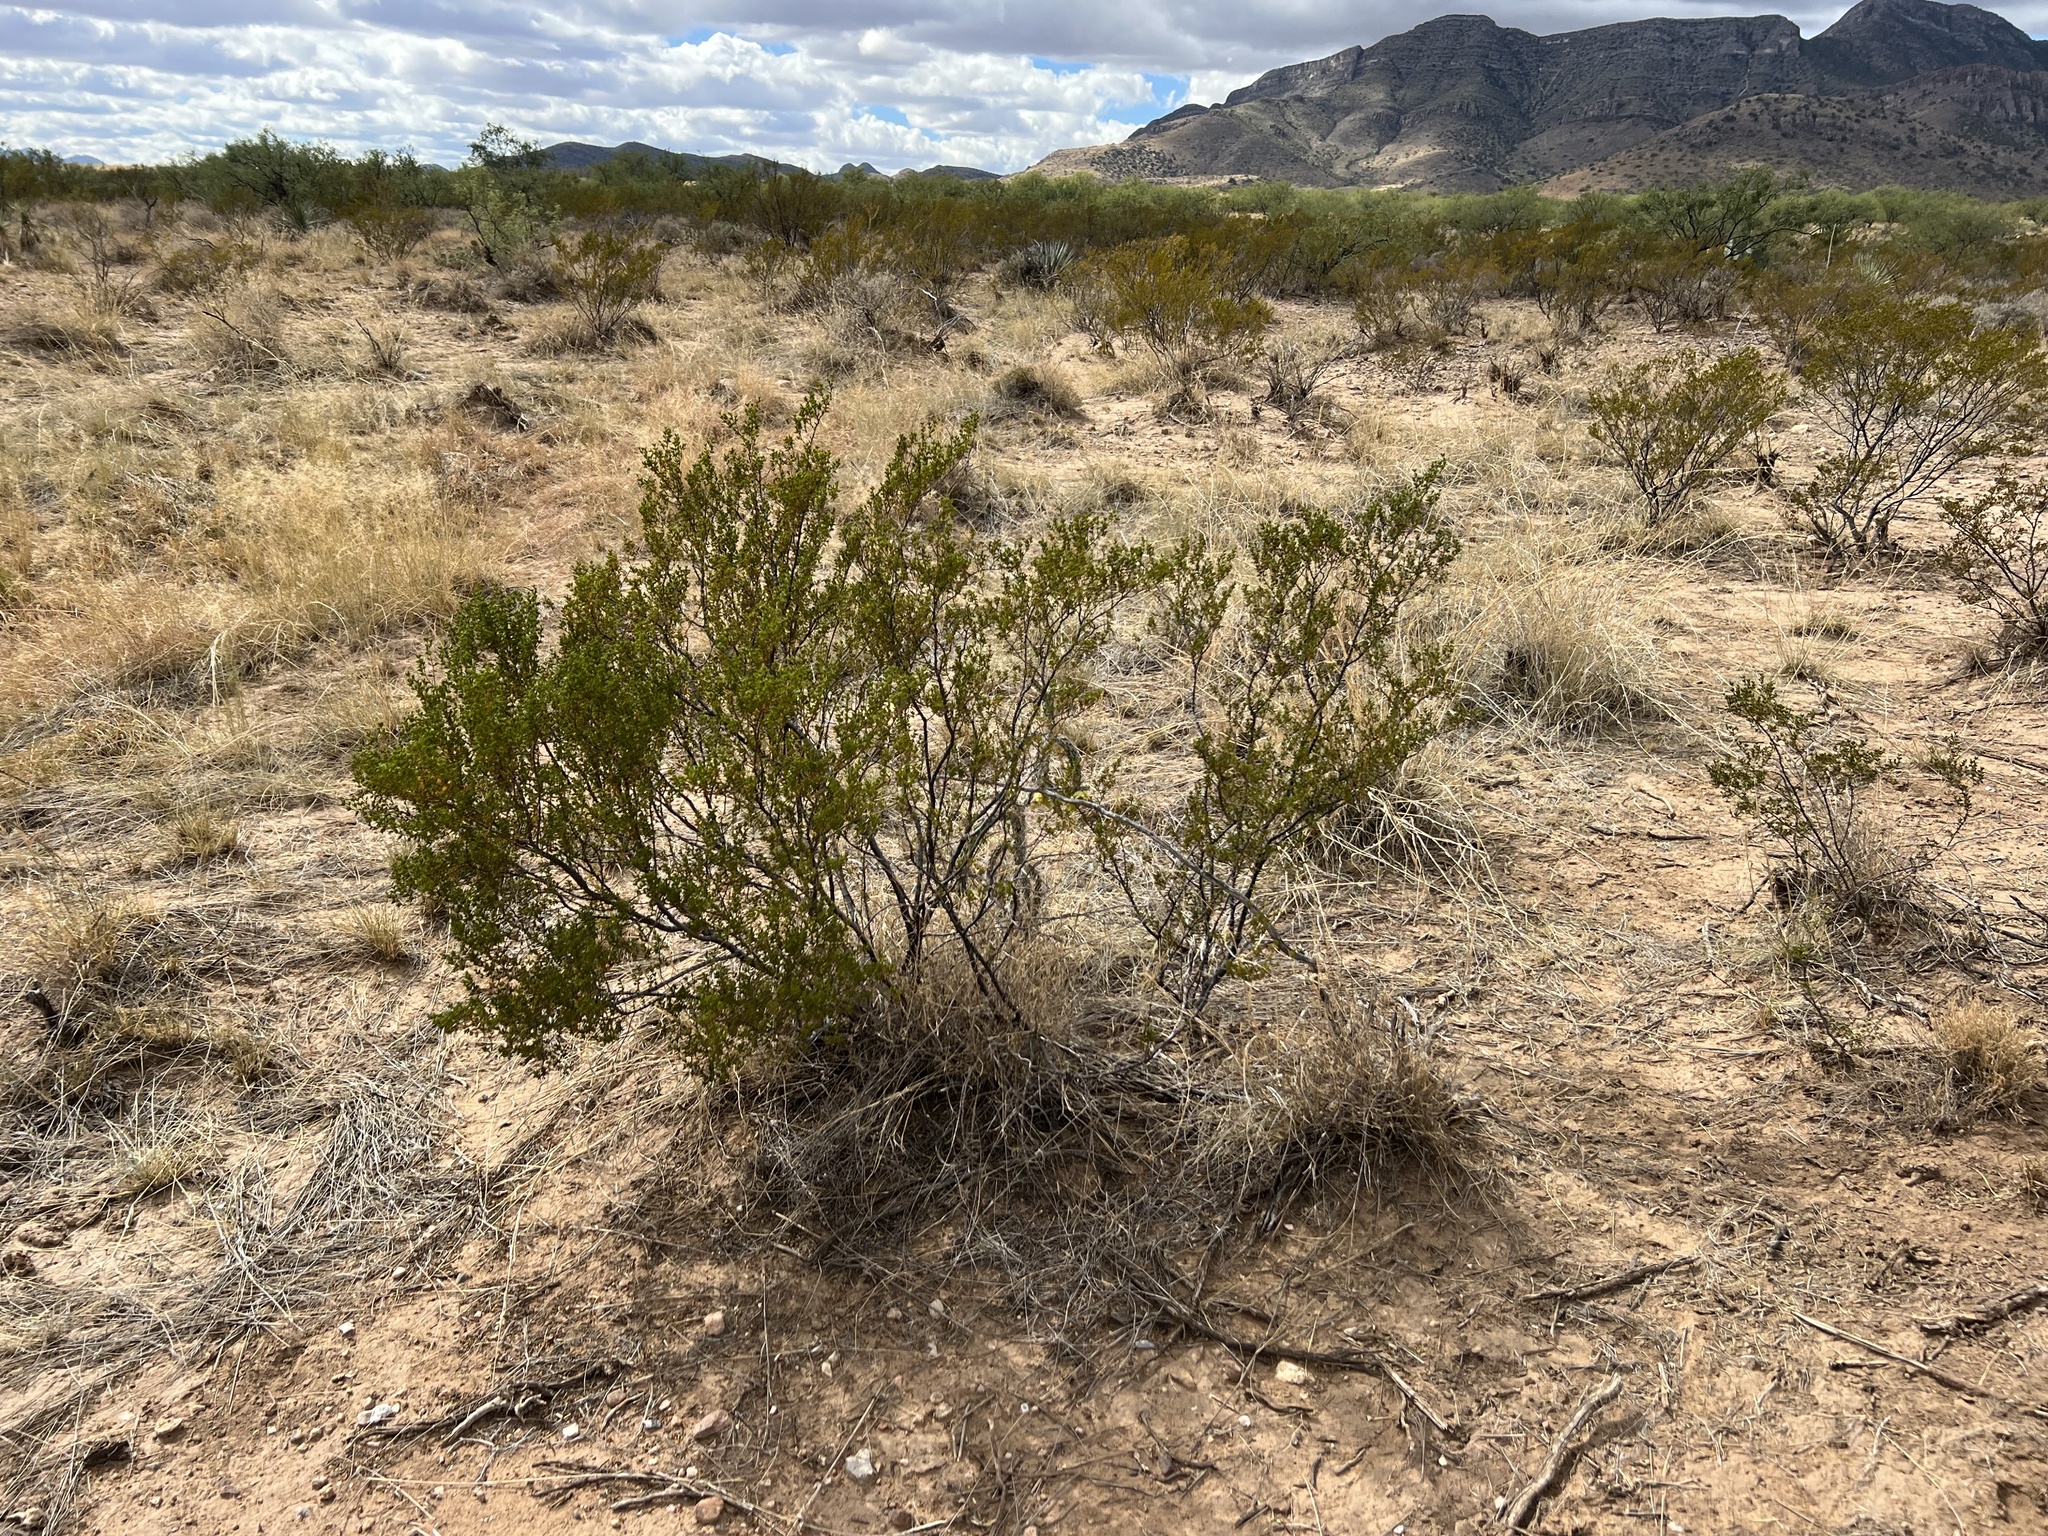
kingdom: Plantae
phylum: Tracheophyta
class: Magnoliopsida
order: Zygophyllales
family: Zygophyllaceae
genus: Larrea
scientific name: Larrea tridentata
